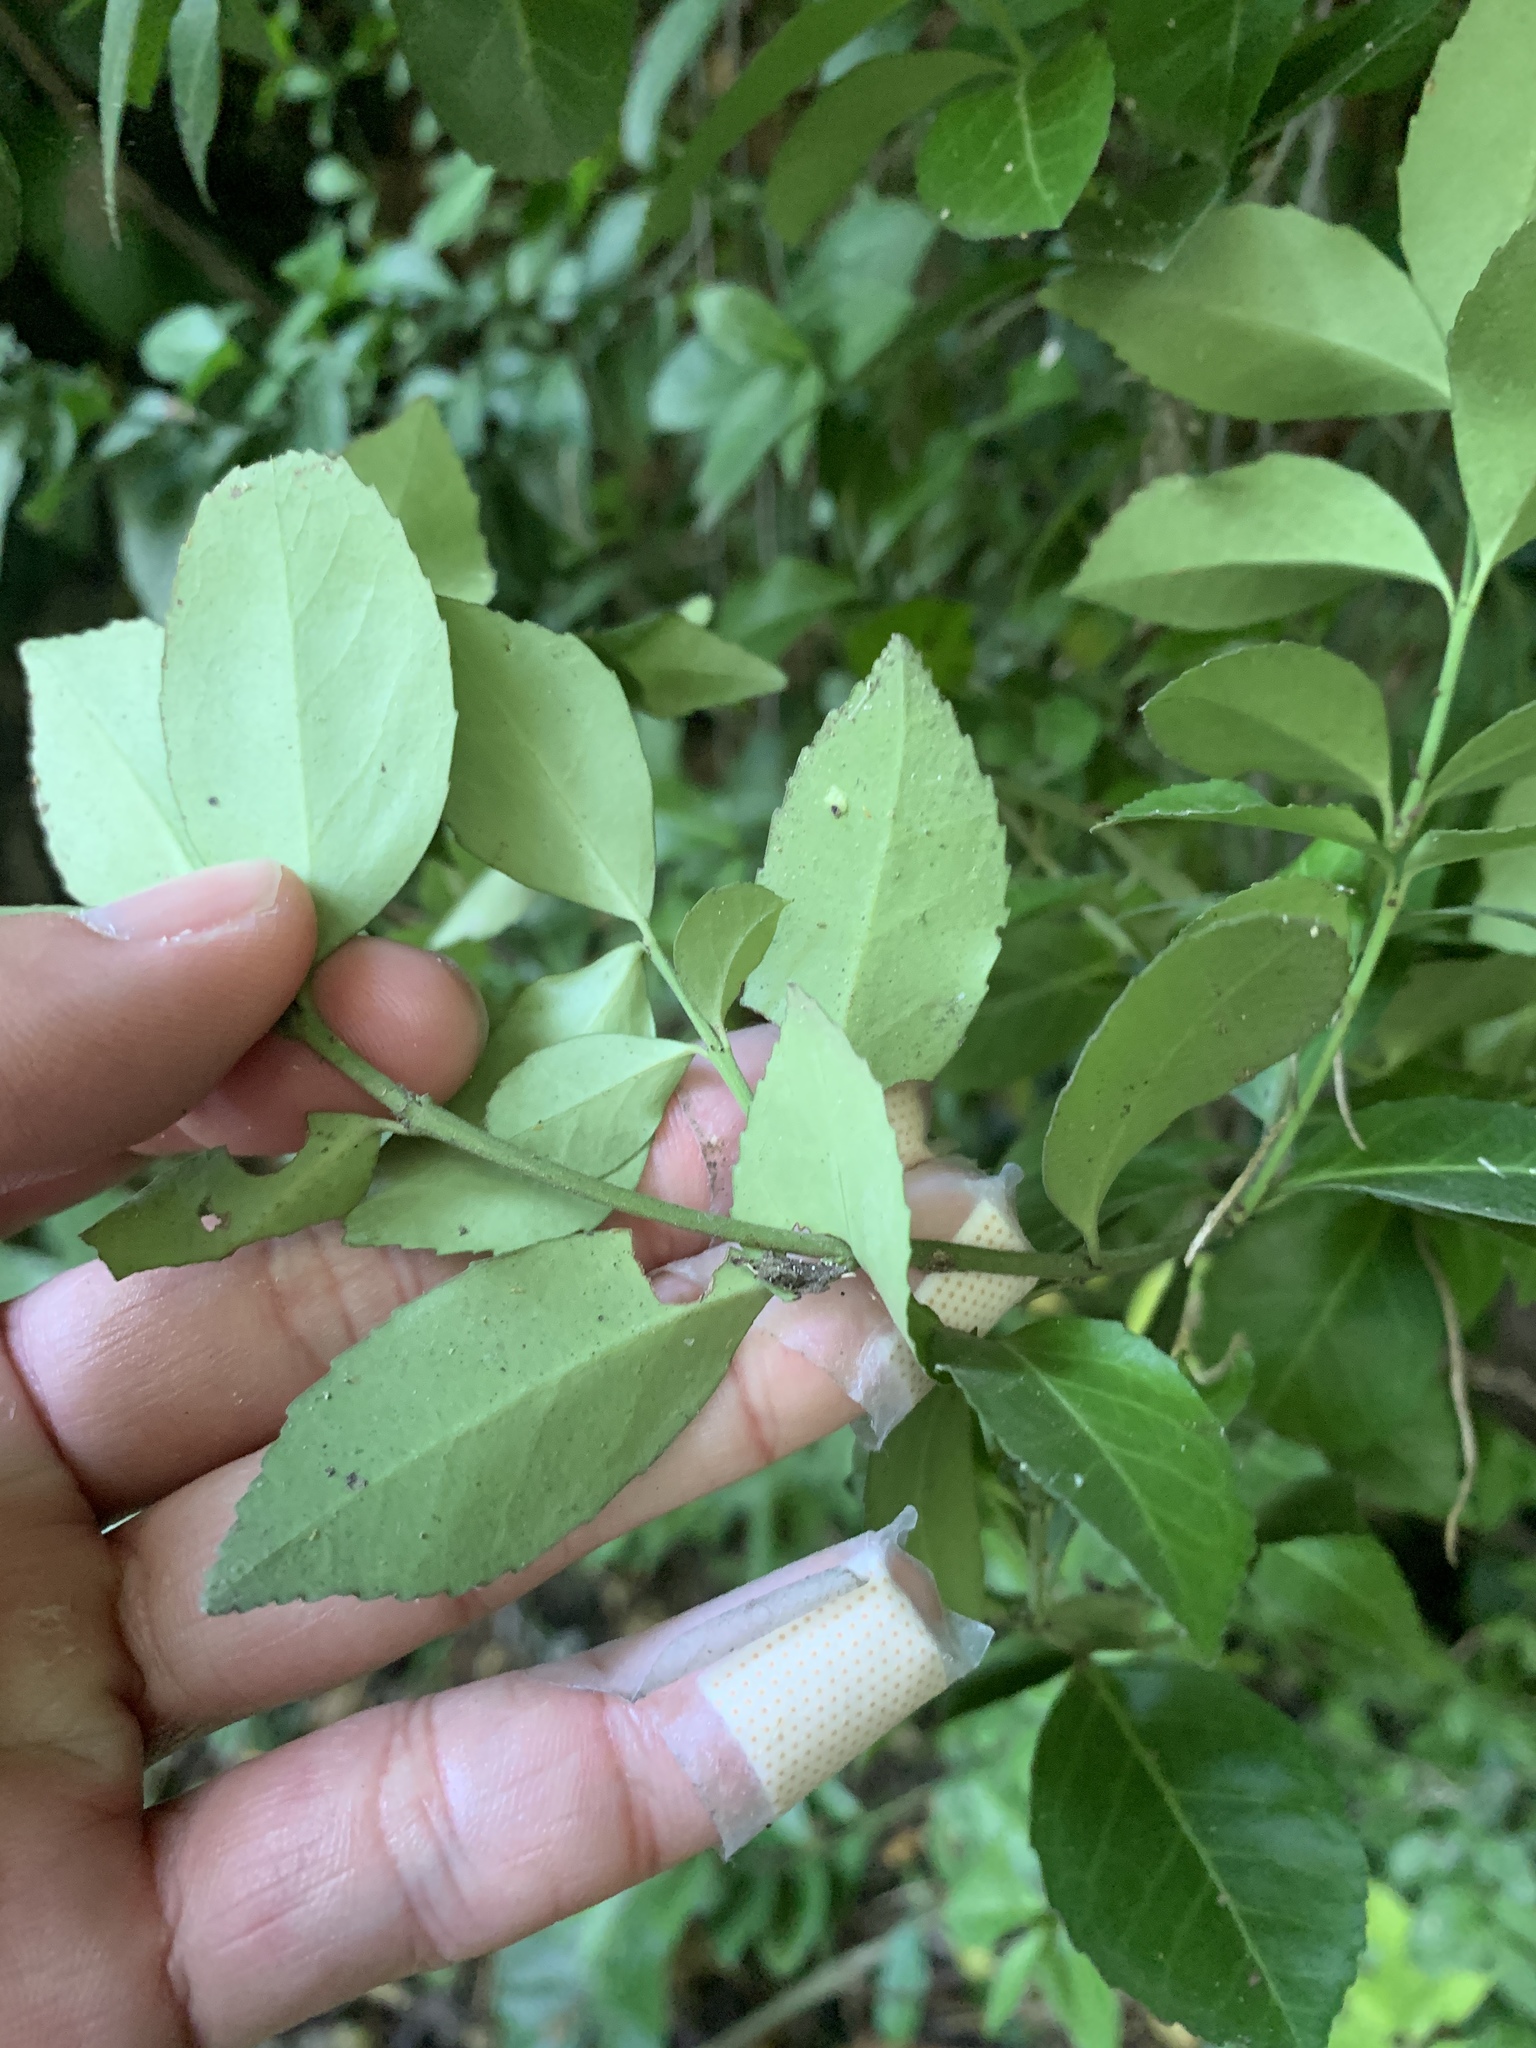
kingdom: Plantae
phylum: Tracheophyta
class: Magnoliopsida
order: Celastrales
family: Celastraceae
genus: Euonymus
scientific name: Euonymus spraguei
